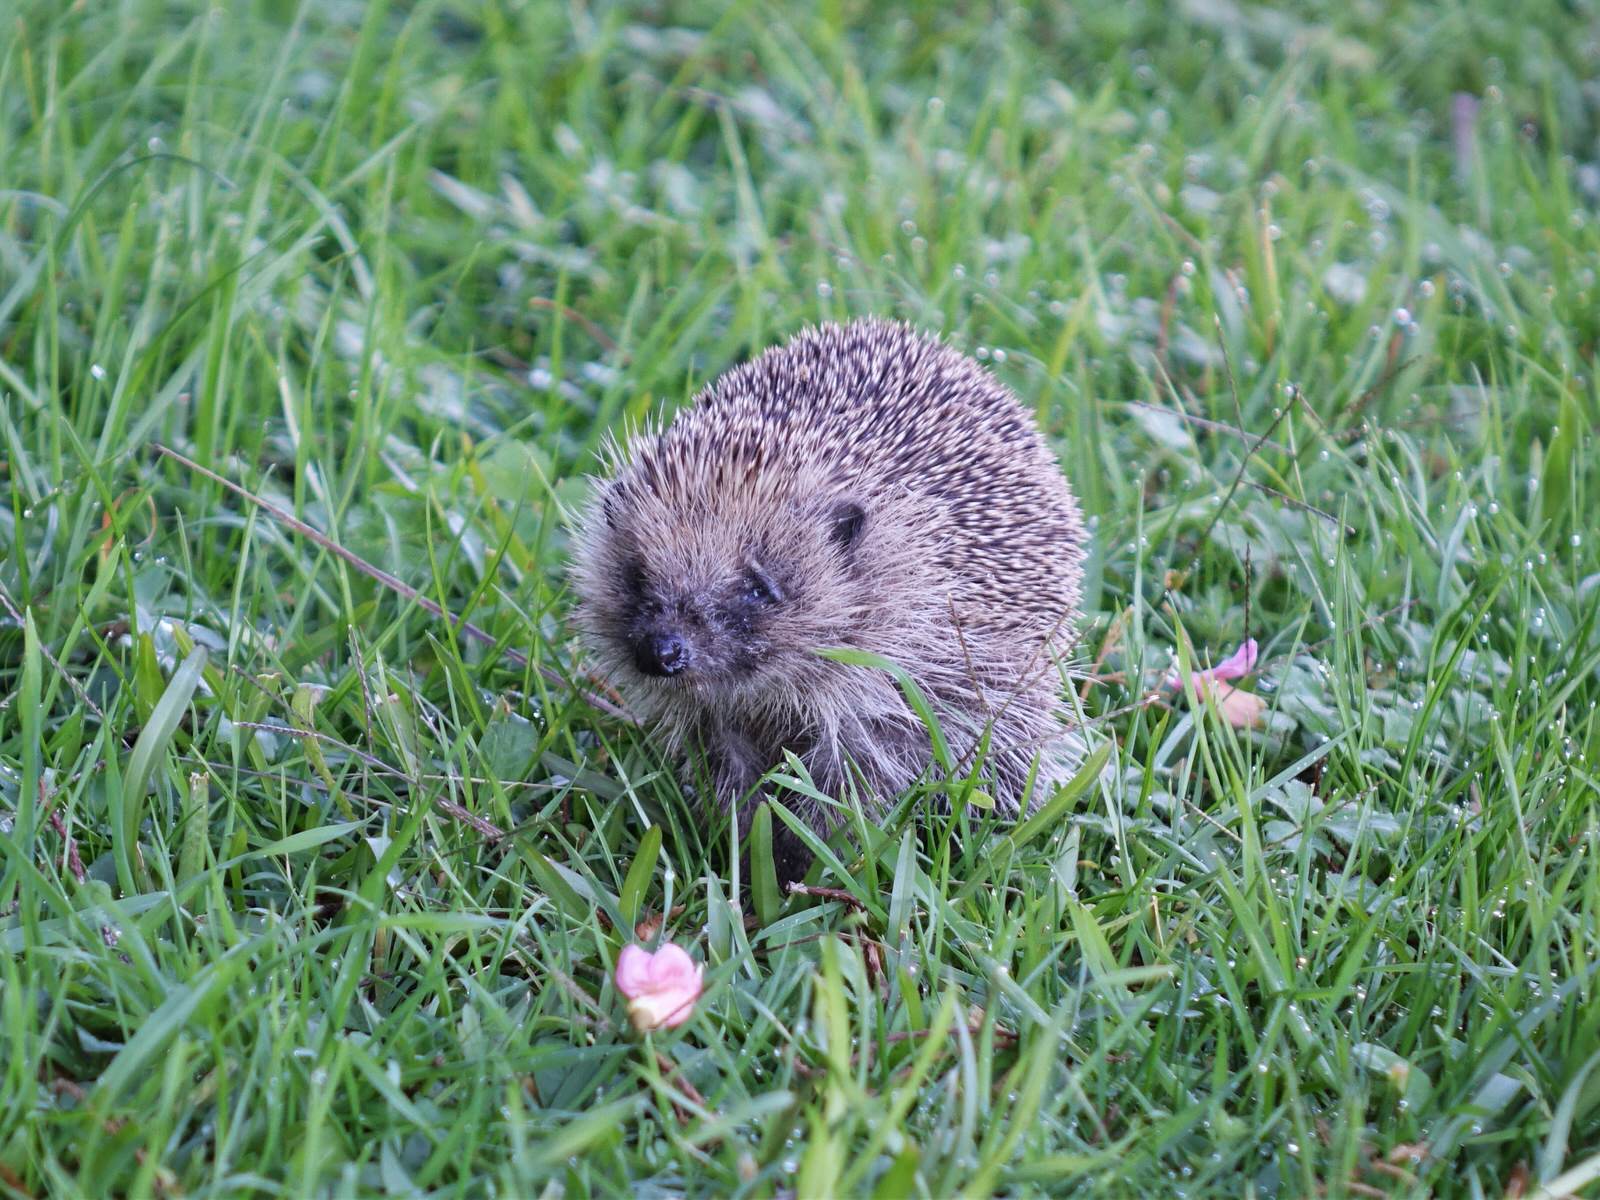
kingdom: Animalia
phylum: Chordata
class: Mammalia
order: Erinaceomorpha
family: Erinaceidae
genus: Erinaceus
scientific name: Erinaceus europaeus
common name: West european hedgehog
